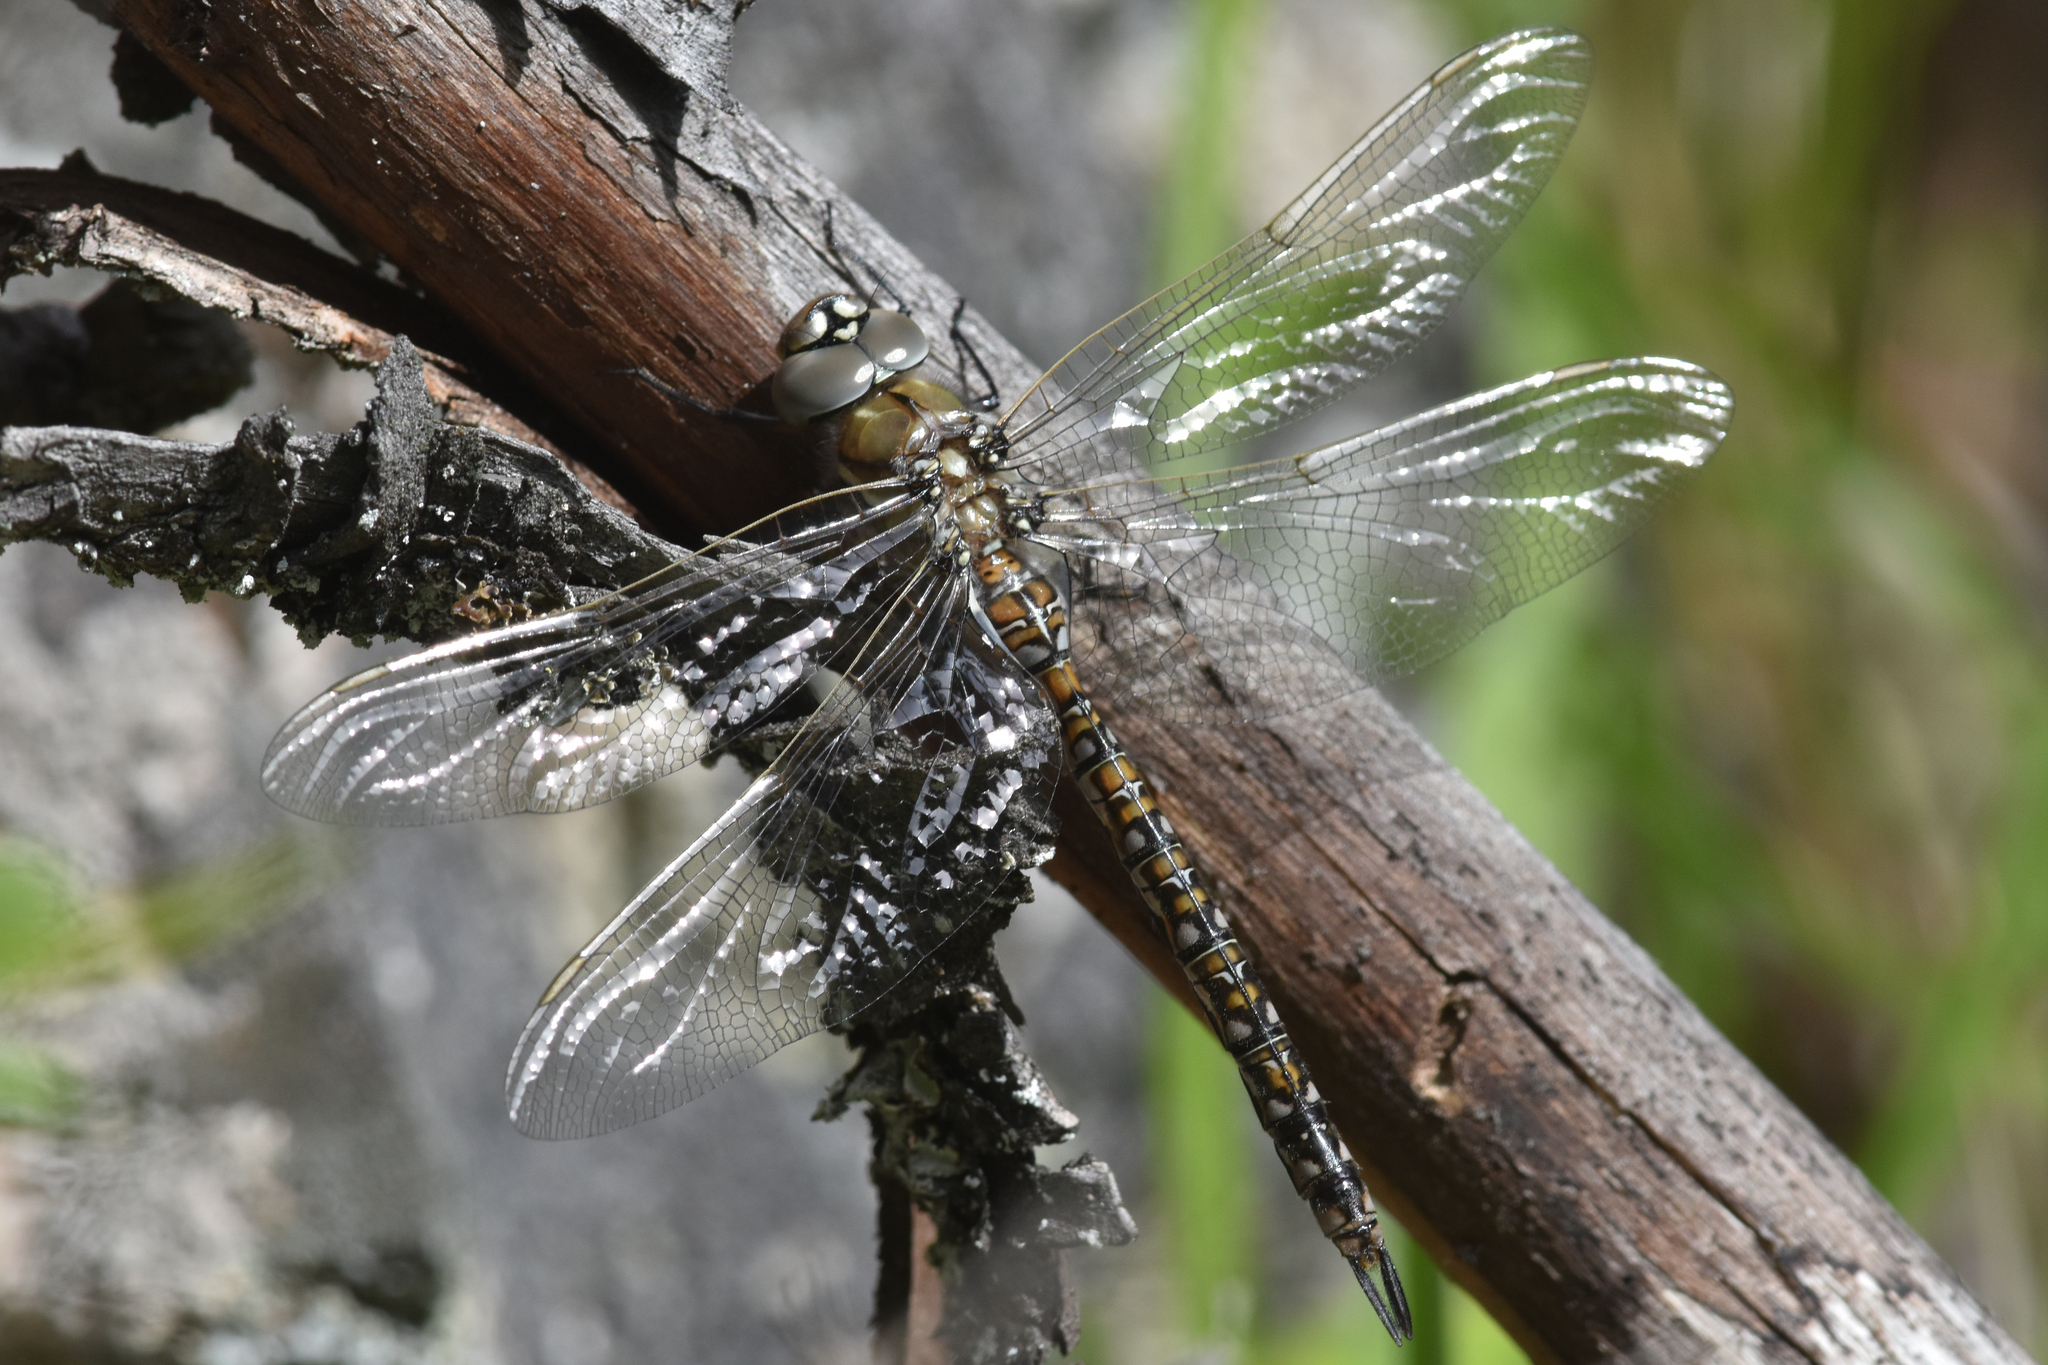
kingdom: Animalia
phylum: Arthropoda
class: Insecta
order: Odonata
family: Aeshnidae
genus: Rhionaeschna
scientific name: Rhionaeschna californica
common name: California darner
